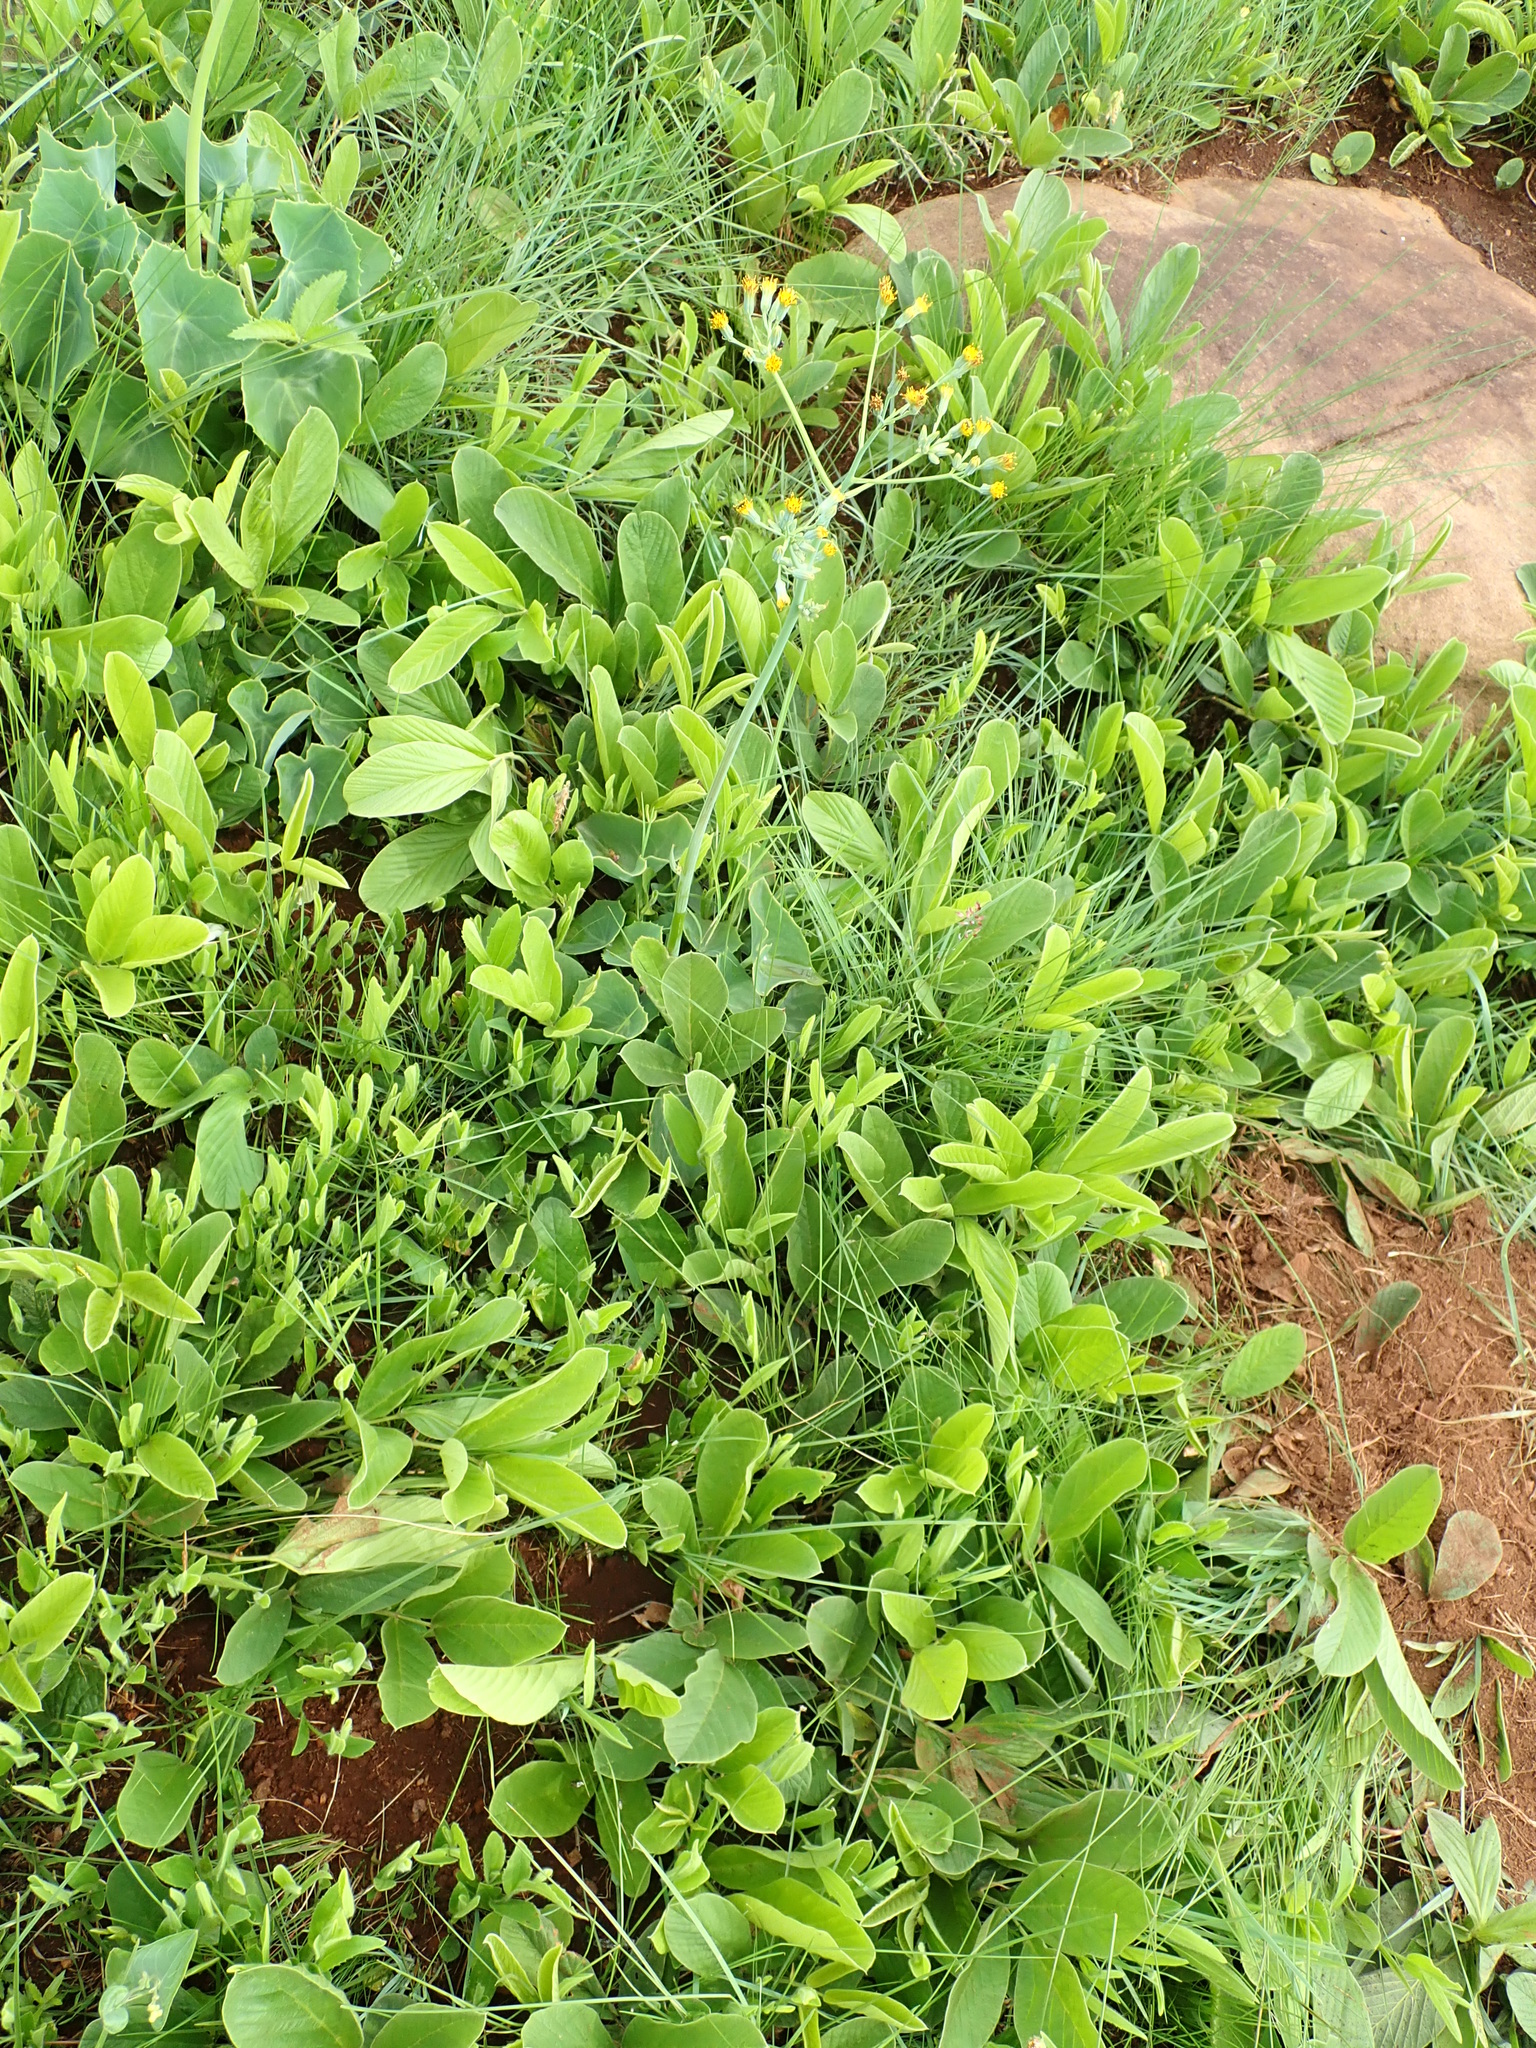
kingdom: Plantae
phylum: Tracheophyta
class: Magnoliopsida
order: Asterales
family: Asteraceae
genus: Senecio
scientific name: Senecio oxyriifolius
